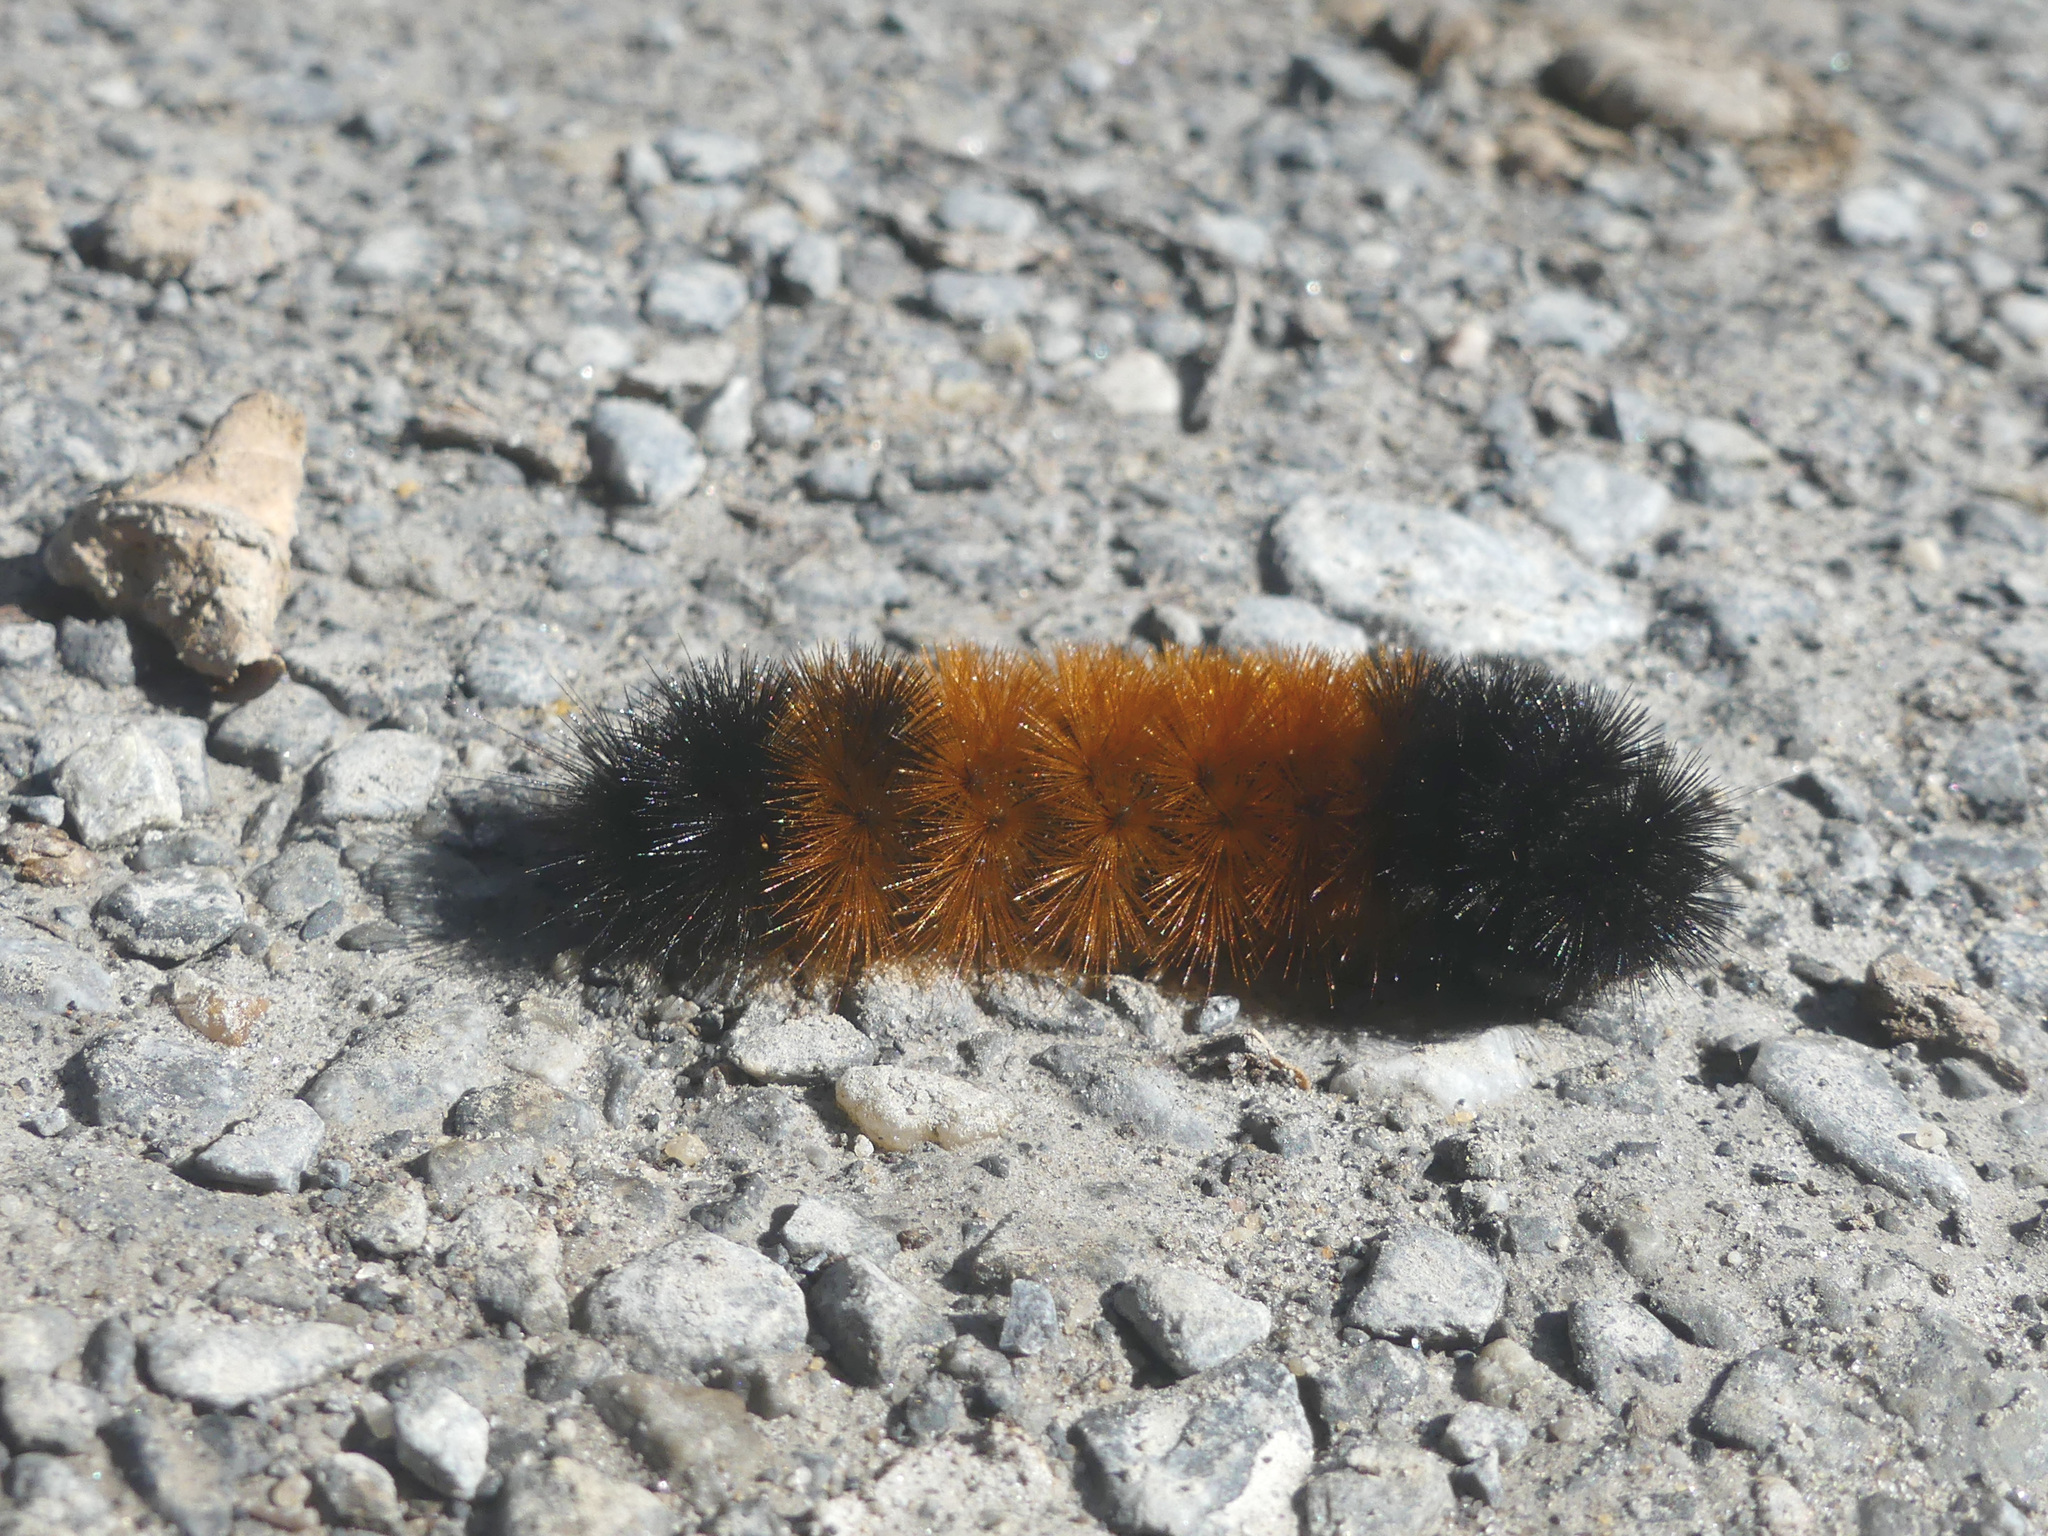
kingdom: Animalia
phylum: Arthropoda
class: Insecta
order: Lepidoptera
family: Erebidae
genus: Pyrrharctia
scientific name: Pyrrharctia isabella
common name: Isabella tiger moth
